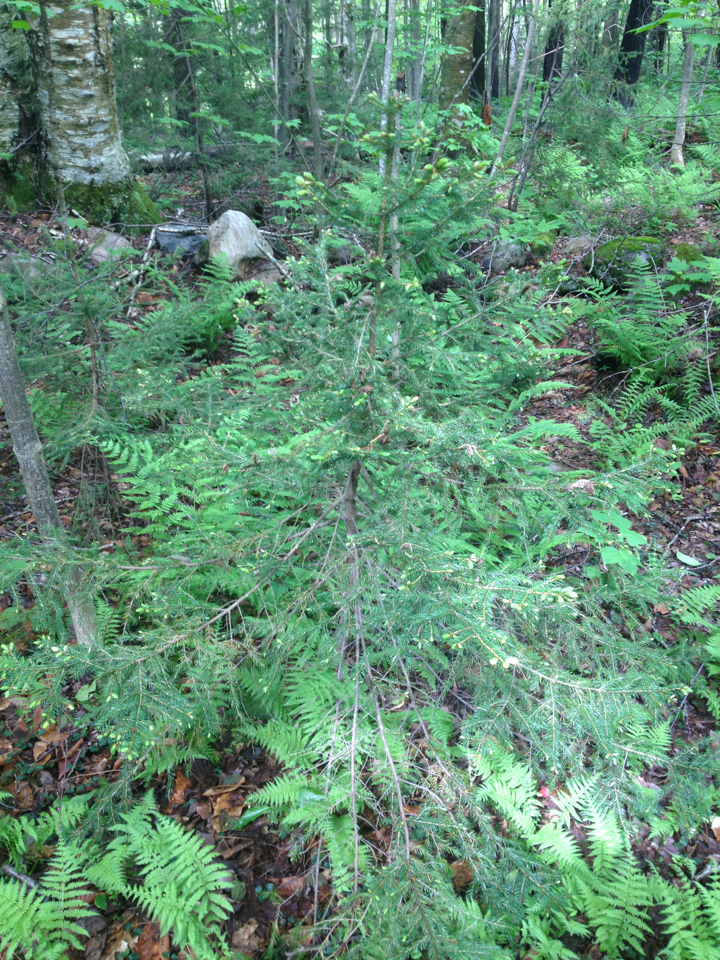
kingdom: Plantae
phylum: Tracheophyta
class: Pinopsida
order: Pinales
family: Pinaceae
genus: Picea
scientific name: Picea rubens
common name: Red spruce
